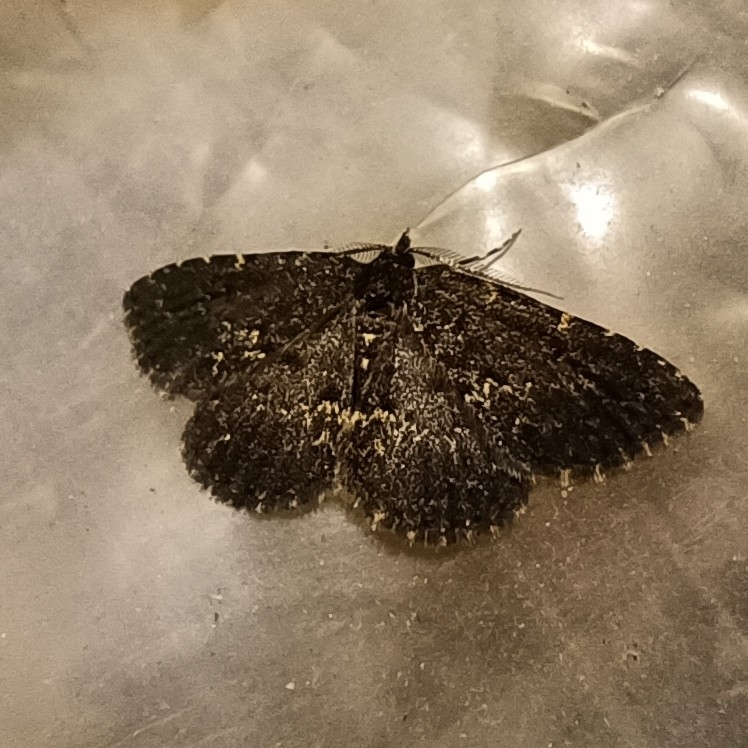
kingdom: Animalia
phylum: Arthropoda
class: Insecta
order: Lepidoptera
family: Erebidae
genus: Parascotia
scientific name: Parascotia fuliginaria
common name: Waved black
